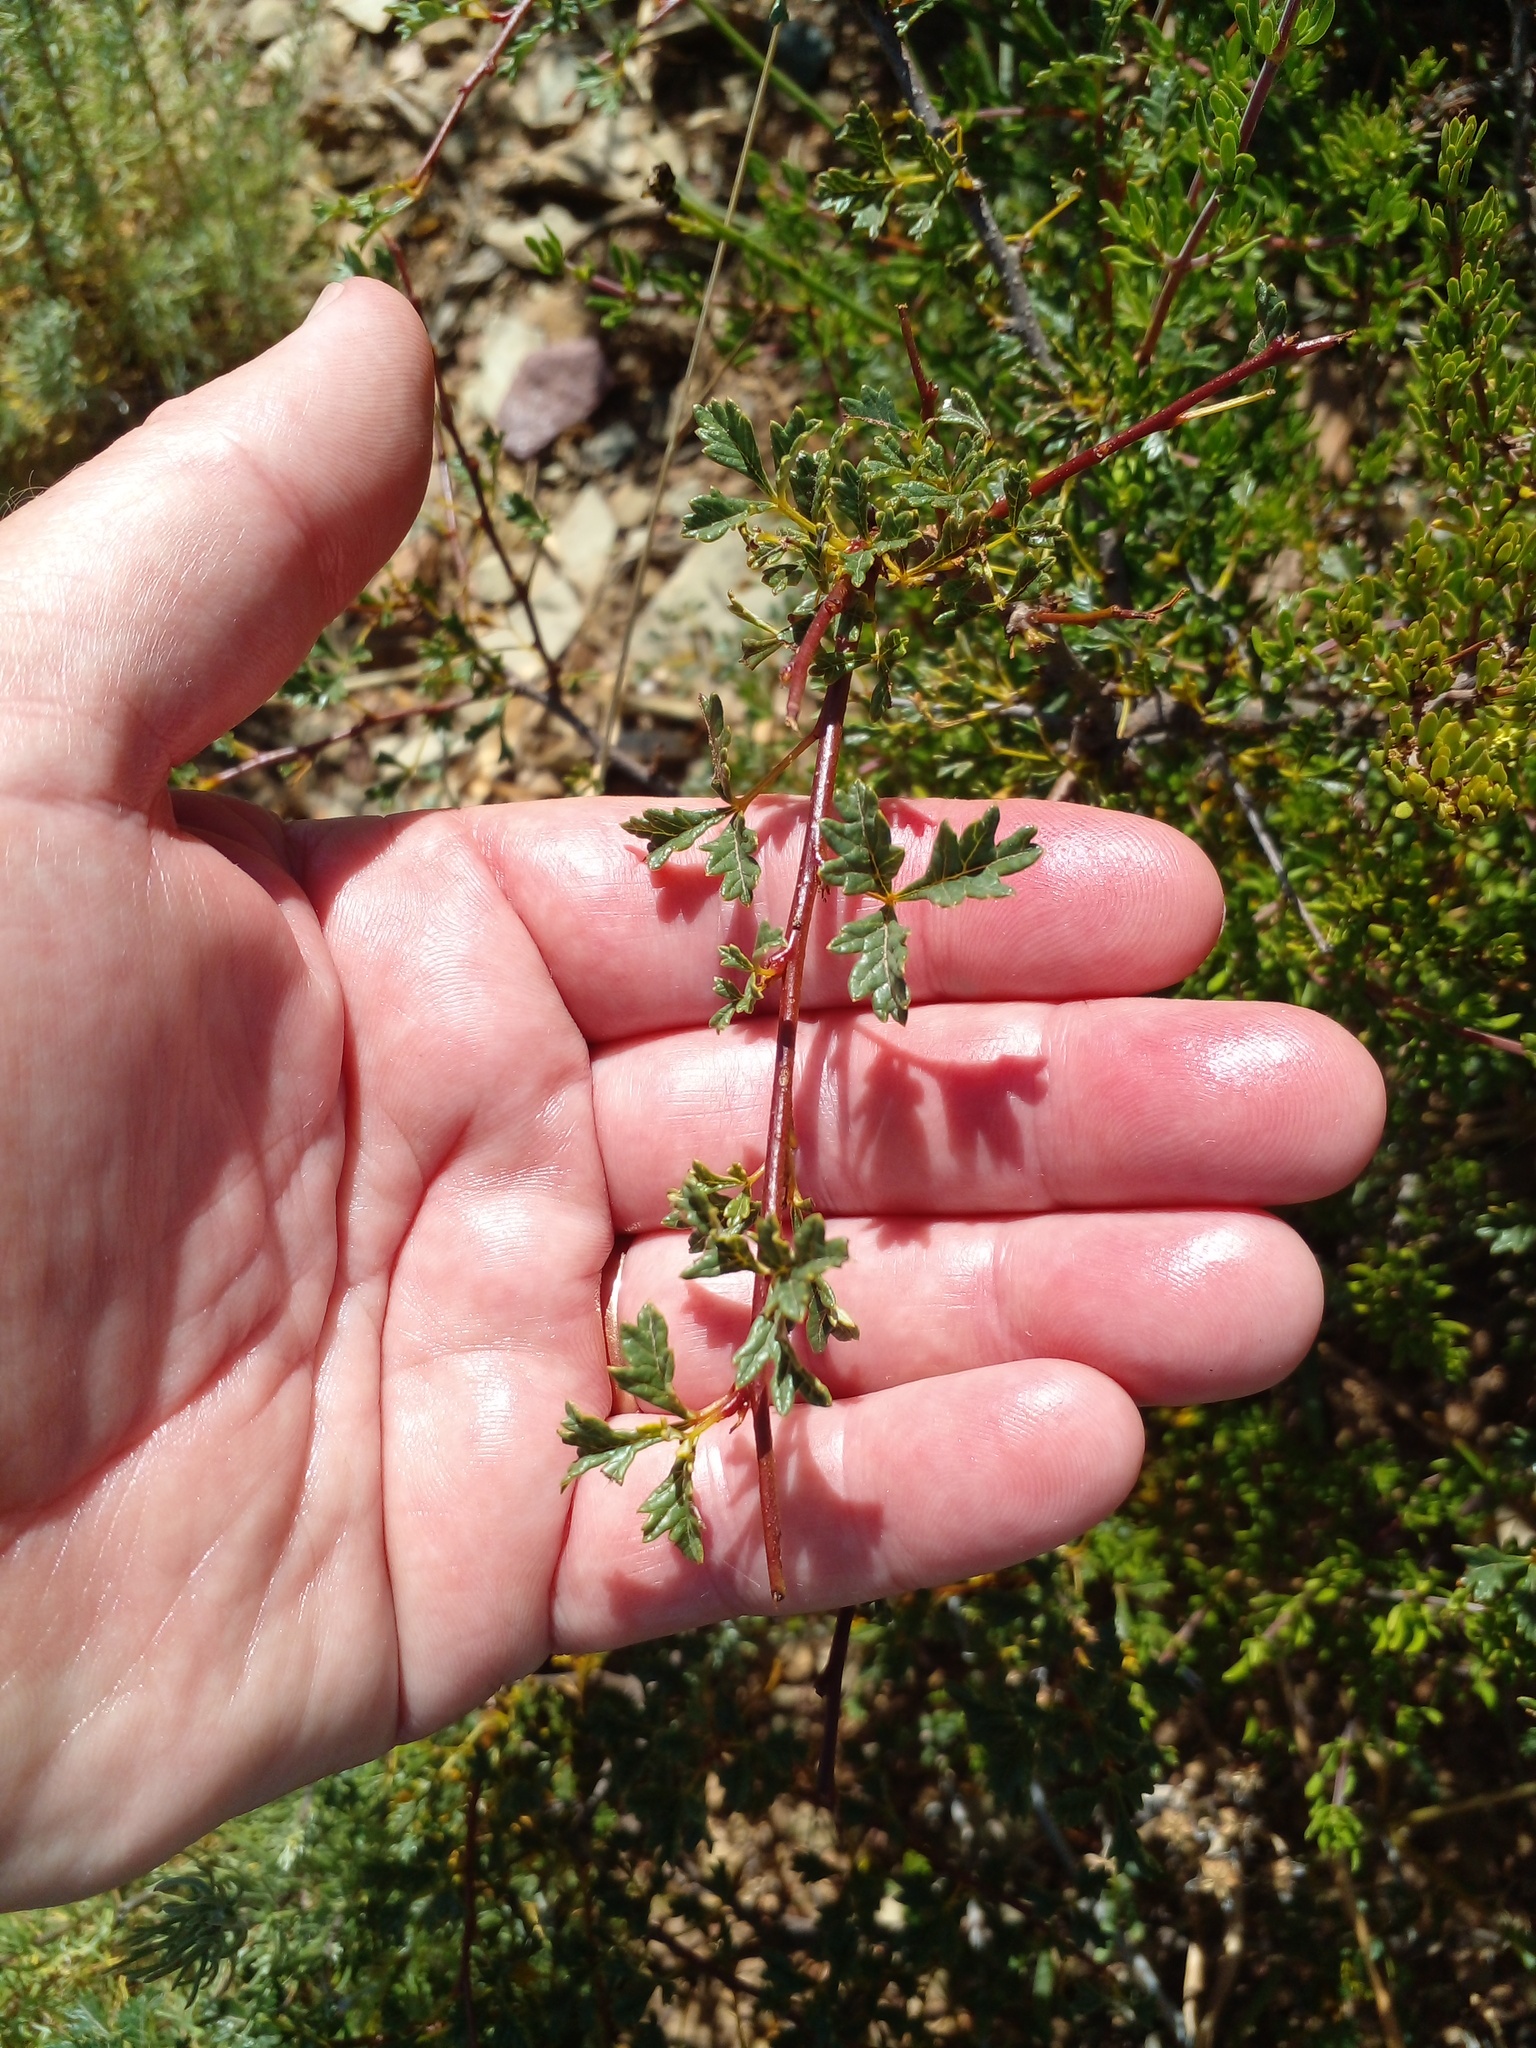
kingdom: Plantae
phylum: Tracheophyta
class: Magnoliopsida
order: Sapindales
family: Anacardiaceae
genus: Searsia
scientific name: Searsia dissecta
